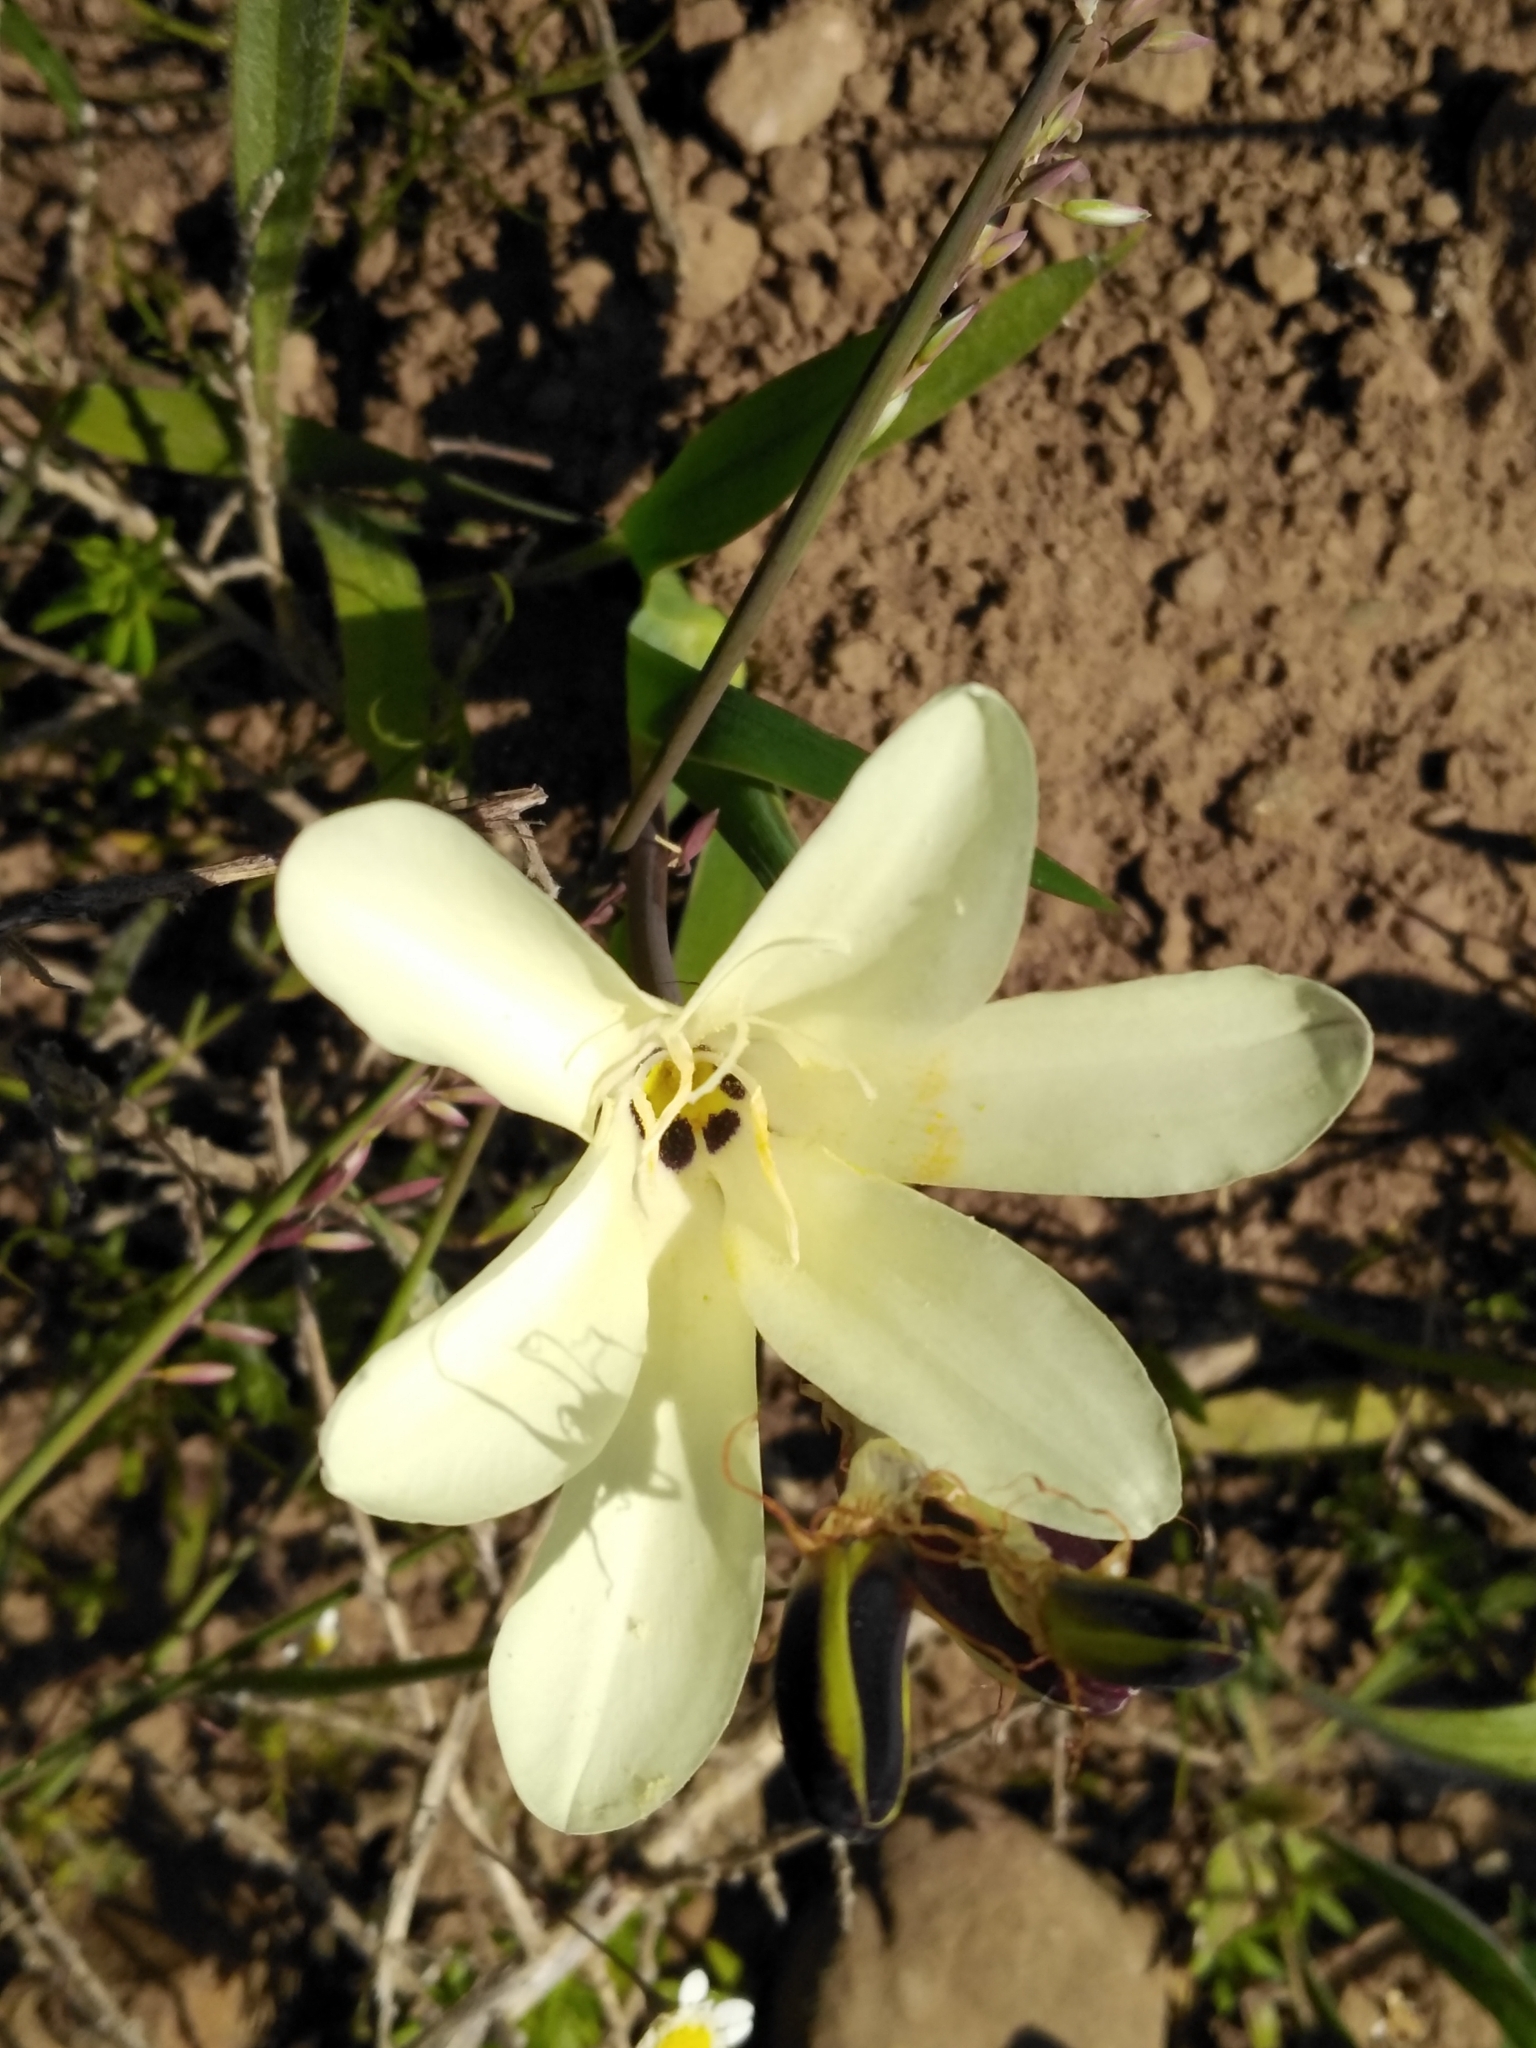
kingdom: Plantae
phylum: Tracheophyta
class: Liliopsida
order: Asparagales
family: Iridaceae
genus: Sparaxis
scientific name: Sparaxis grandiflora
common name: Plain harlequin-flower
